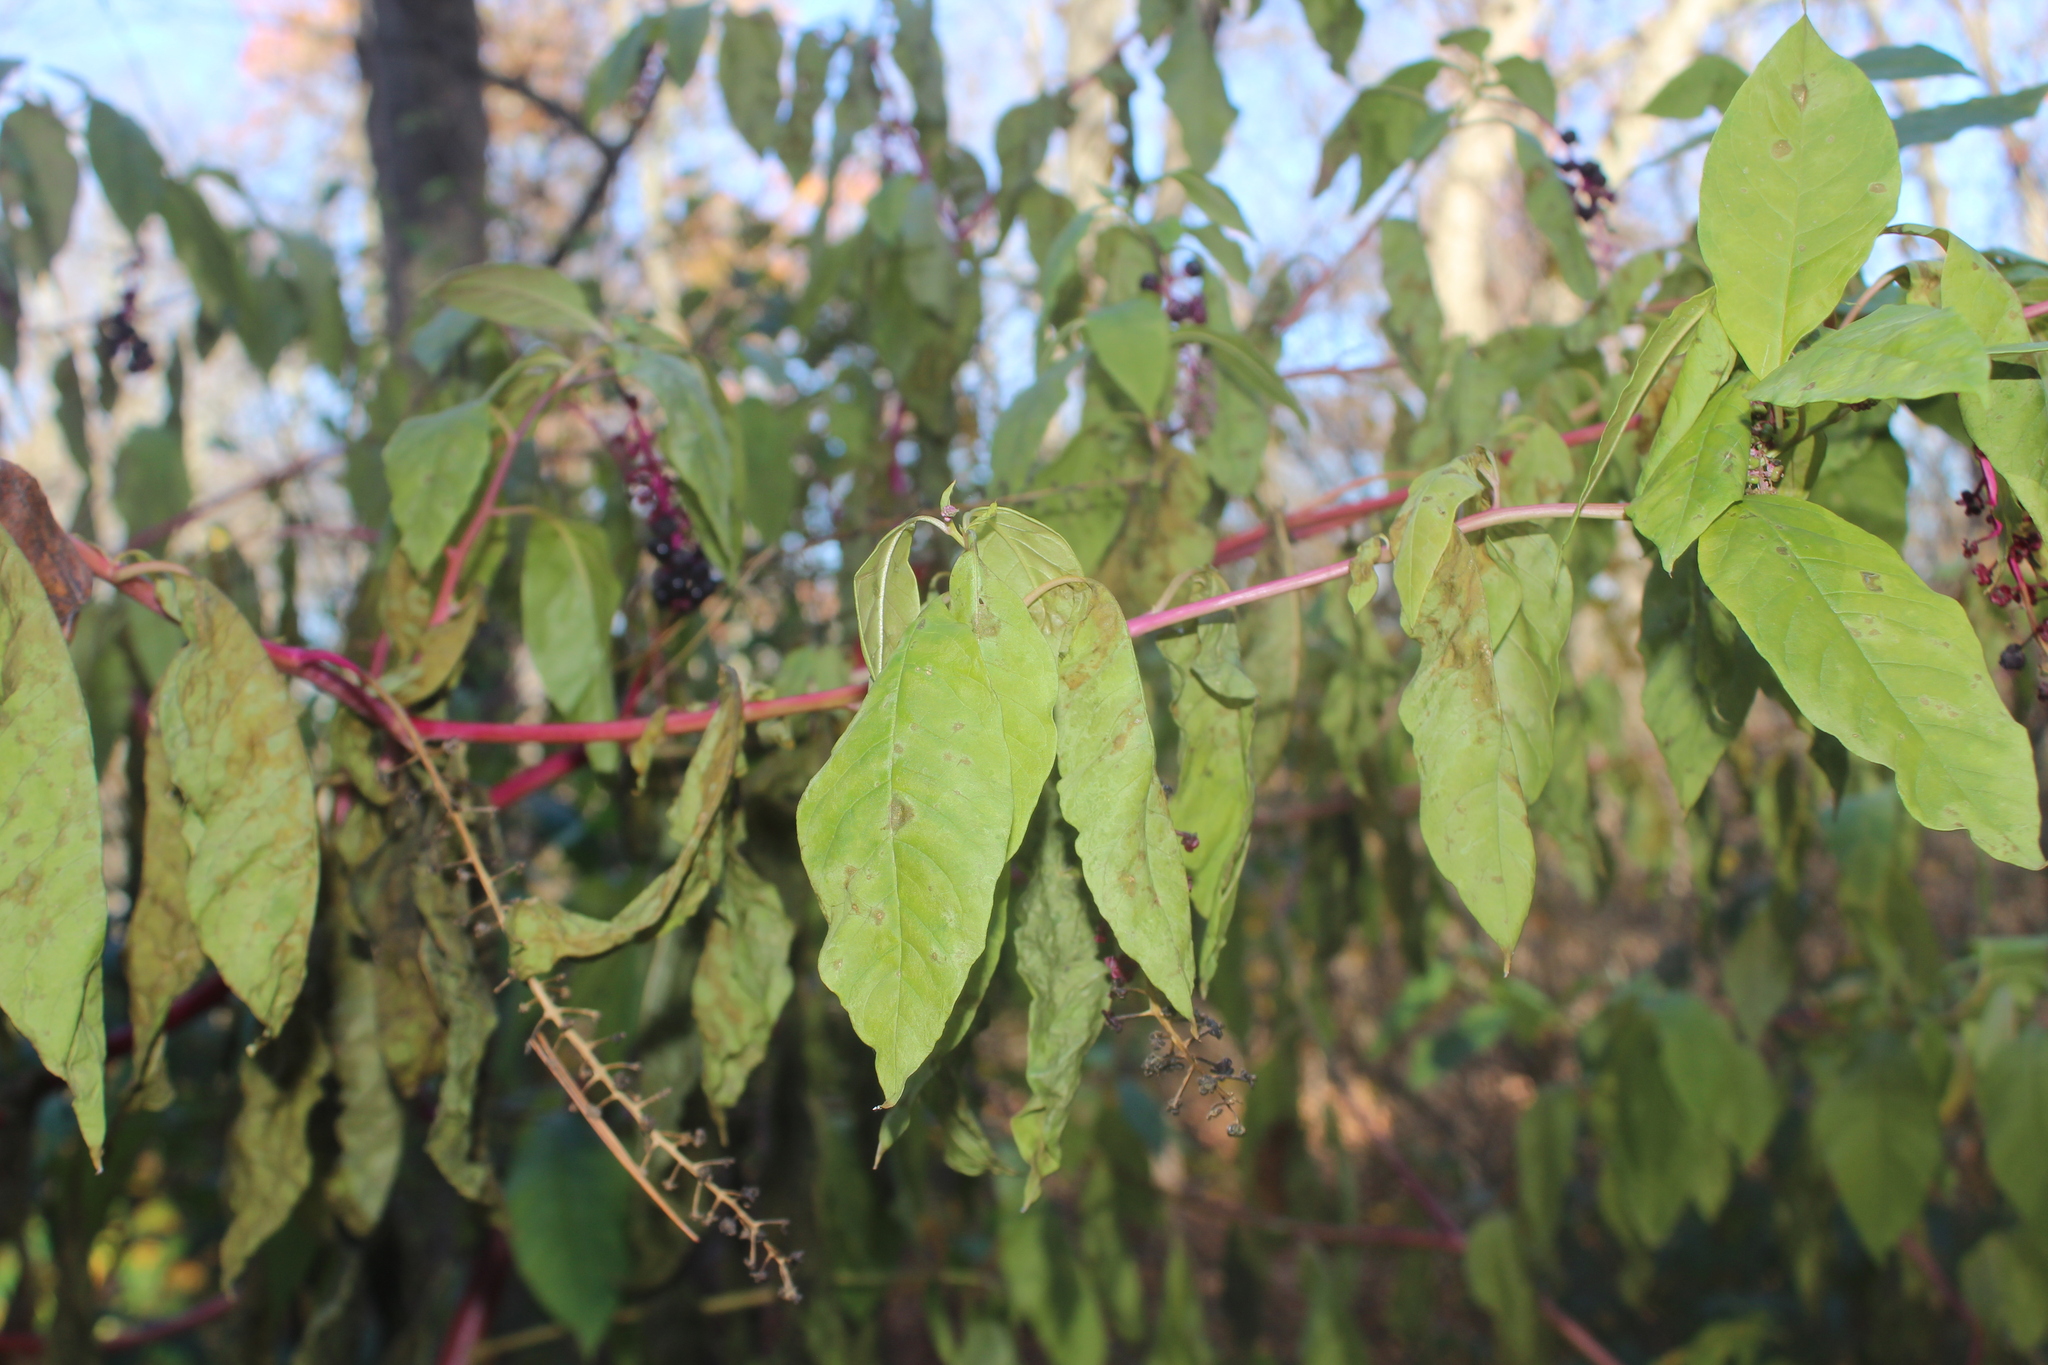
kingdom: Plantae
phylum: Tracheophyta
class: Magnoliopsida
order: Caryophyllales
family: Phytolaccaceae
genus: Phytolacca
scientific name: Phytolacca americana
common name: American pokeweed
